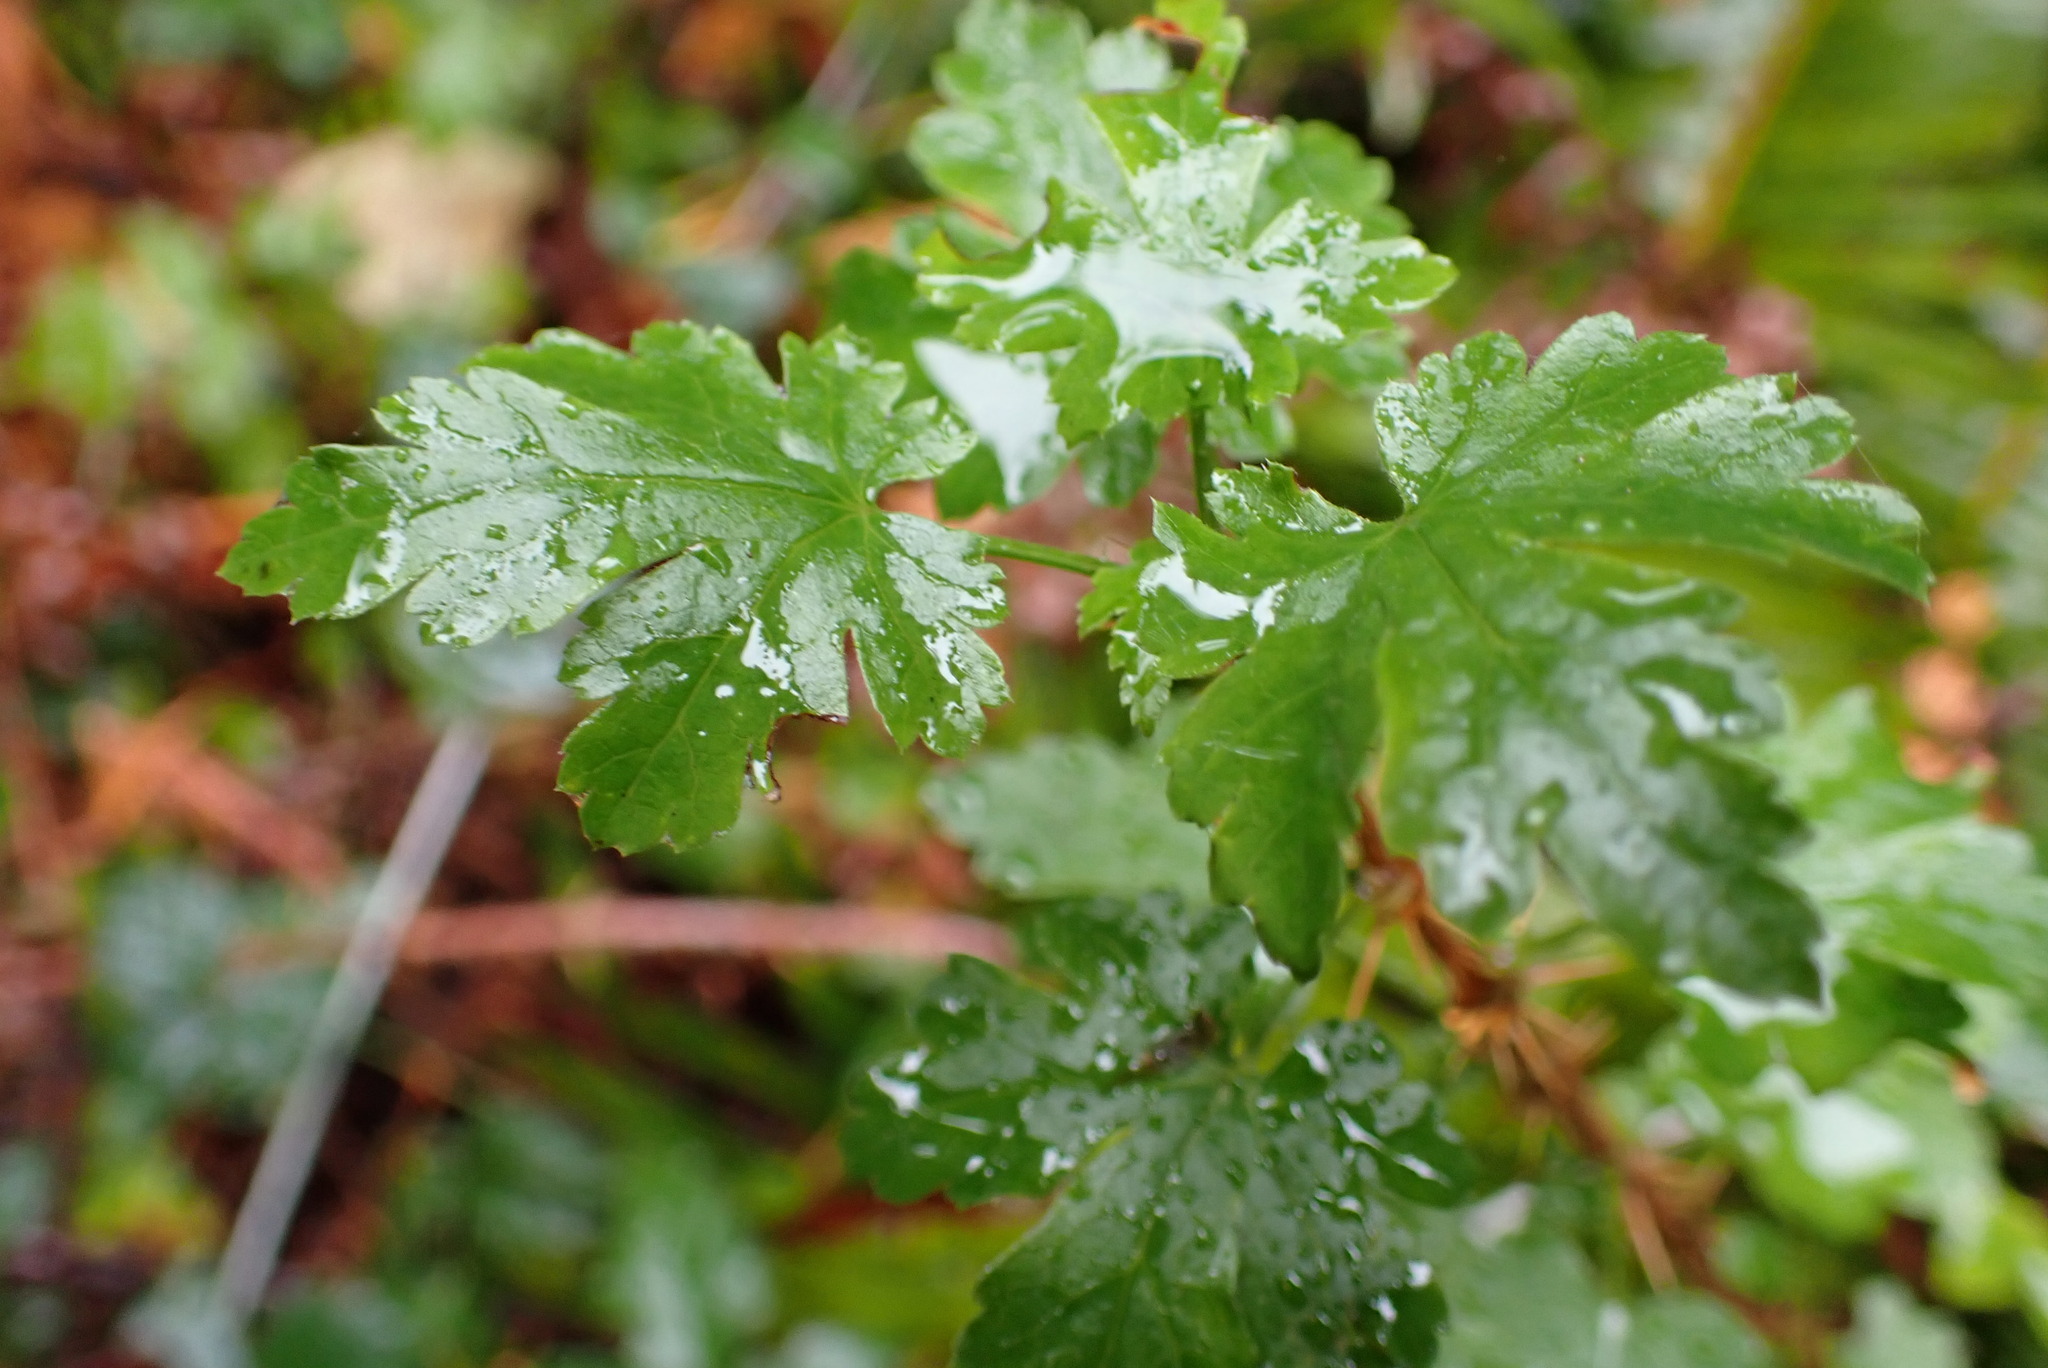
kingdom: Plantae
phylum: Tracheophyta
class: Magnoliopsida
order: Saxifragales
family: Grossulariaceae
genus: Ribes
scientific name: Ribes lacustre
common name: Black gooseberry
